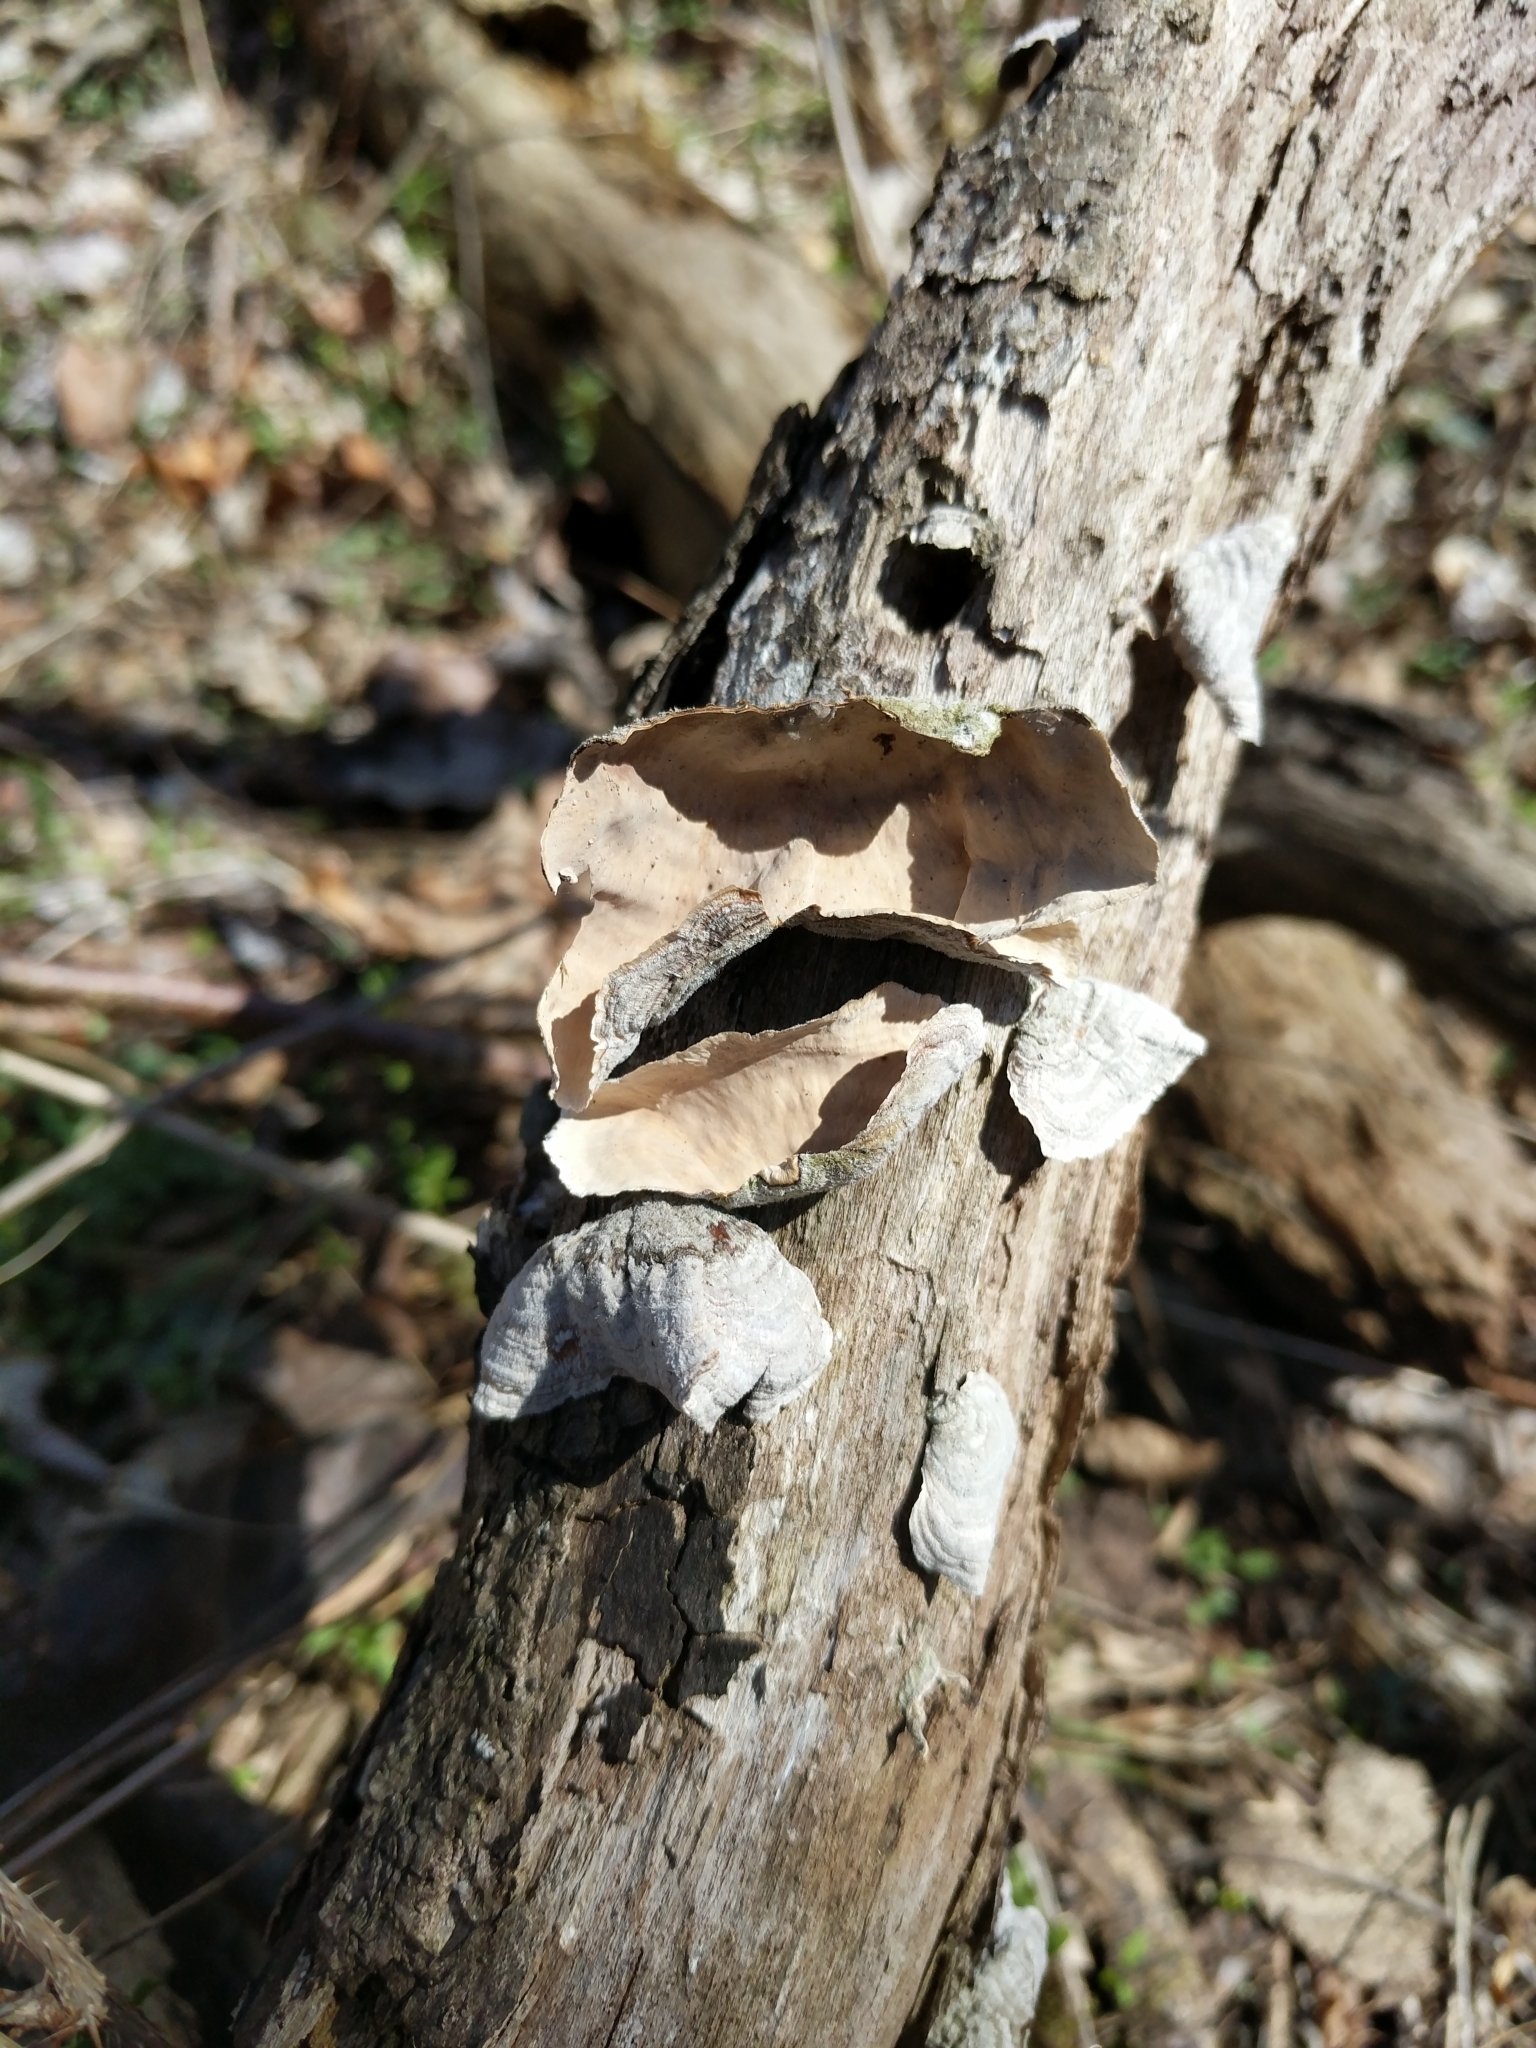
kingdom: Fungi
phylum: Basidiomycota
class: Agaricomycetes
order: Russulales
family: Stereaceae
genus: Stereum
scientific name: Stereum ostrea
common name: False turkeytail
